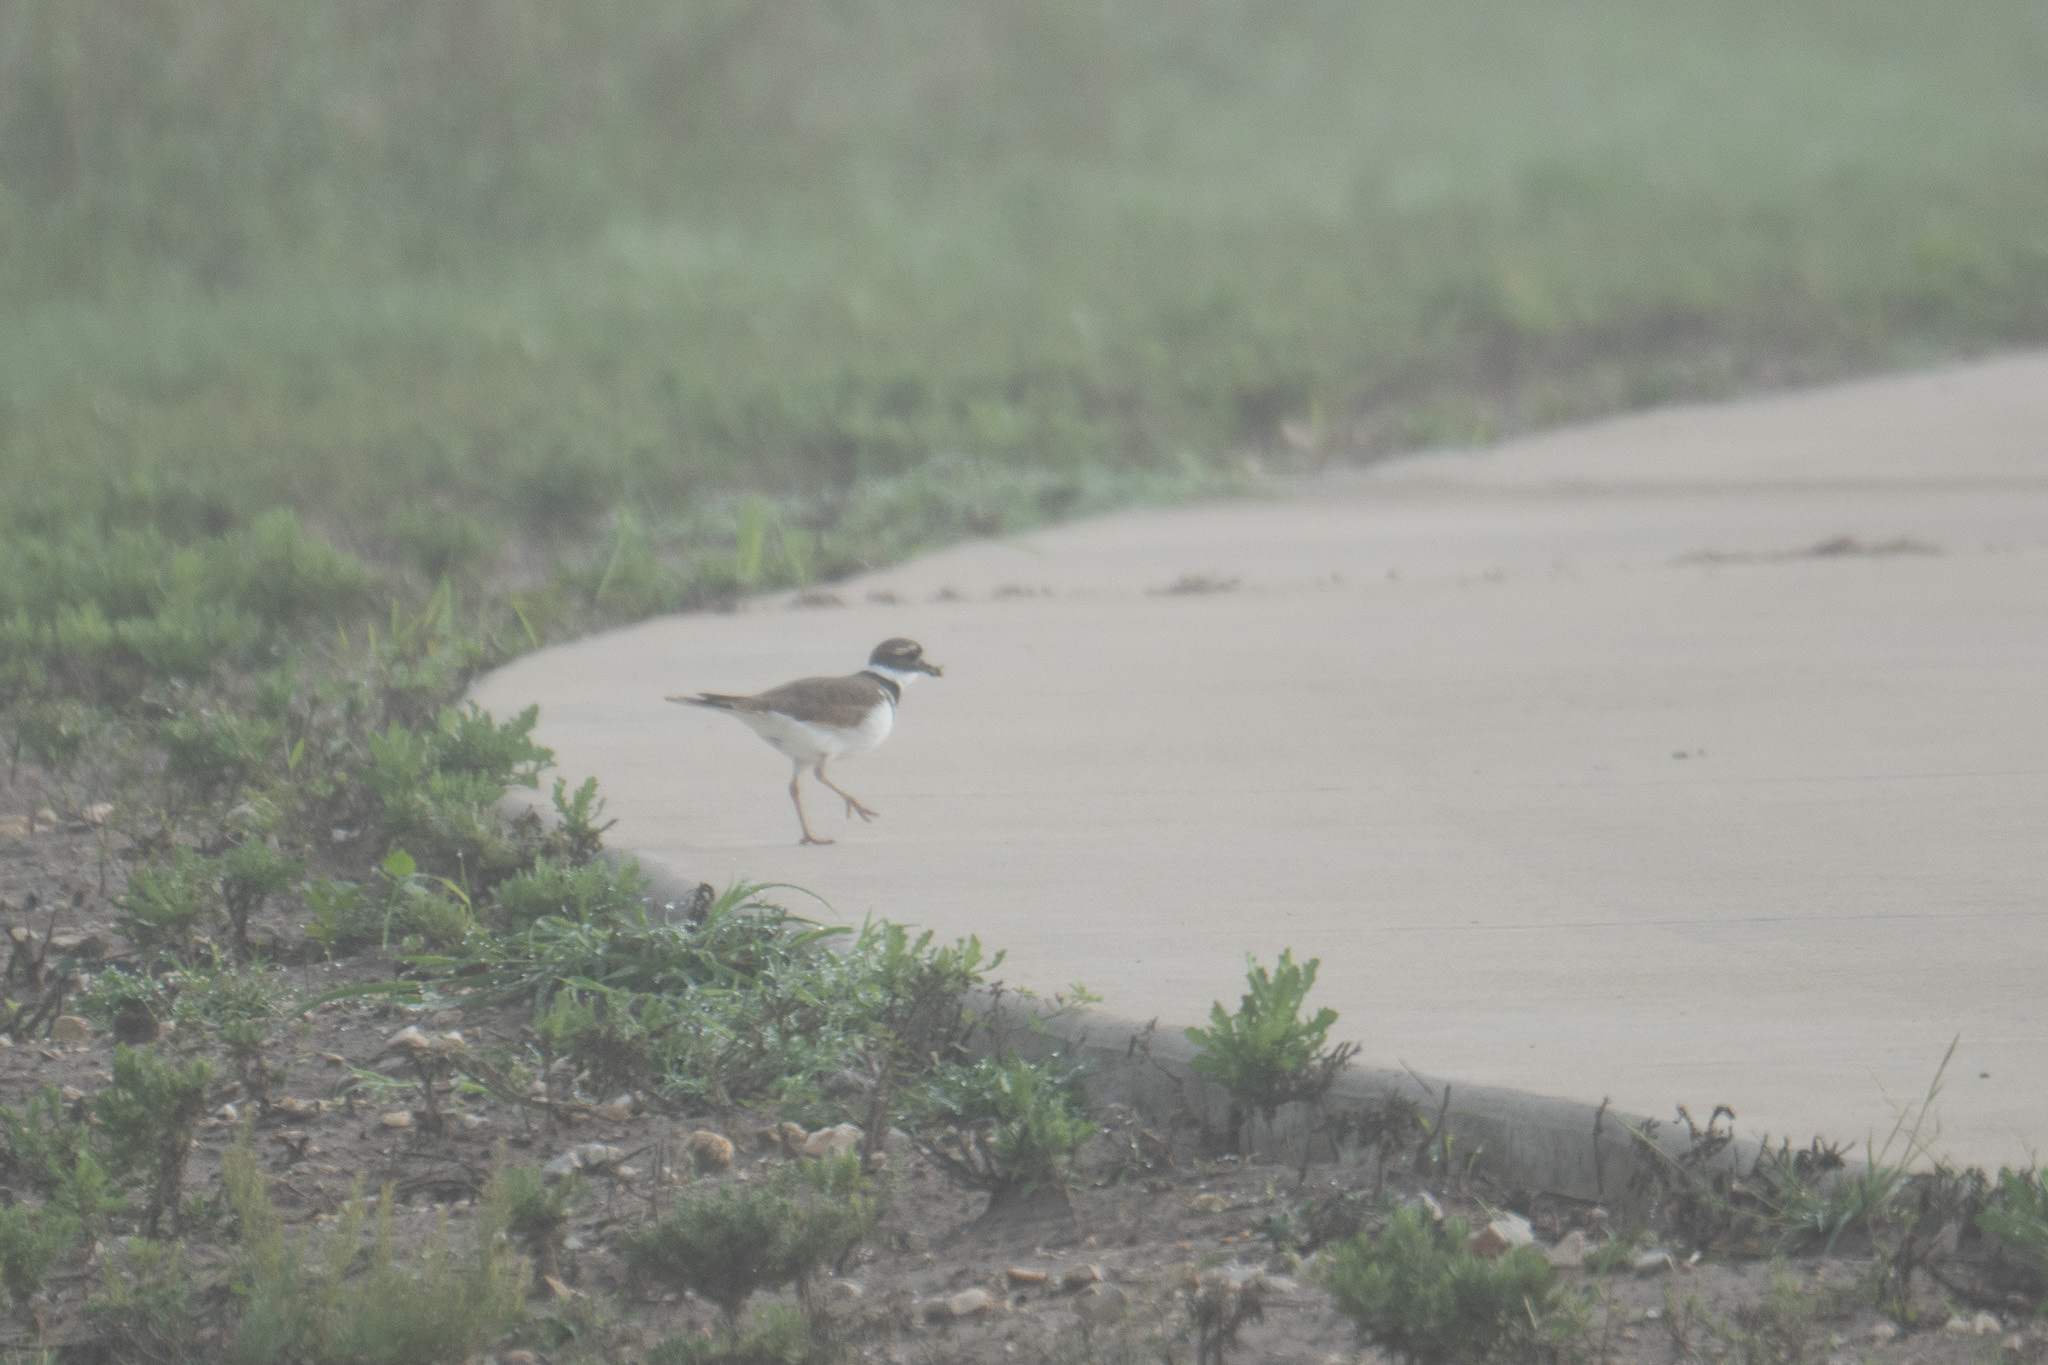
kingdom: Animalia
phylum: Chordata
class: Aves
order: Charadriiformes
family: Charadriidae
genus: Charadrius
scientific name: Charadrius vociferus
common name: Killdeer
